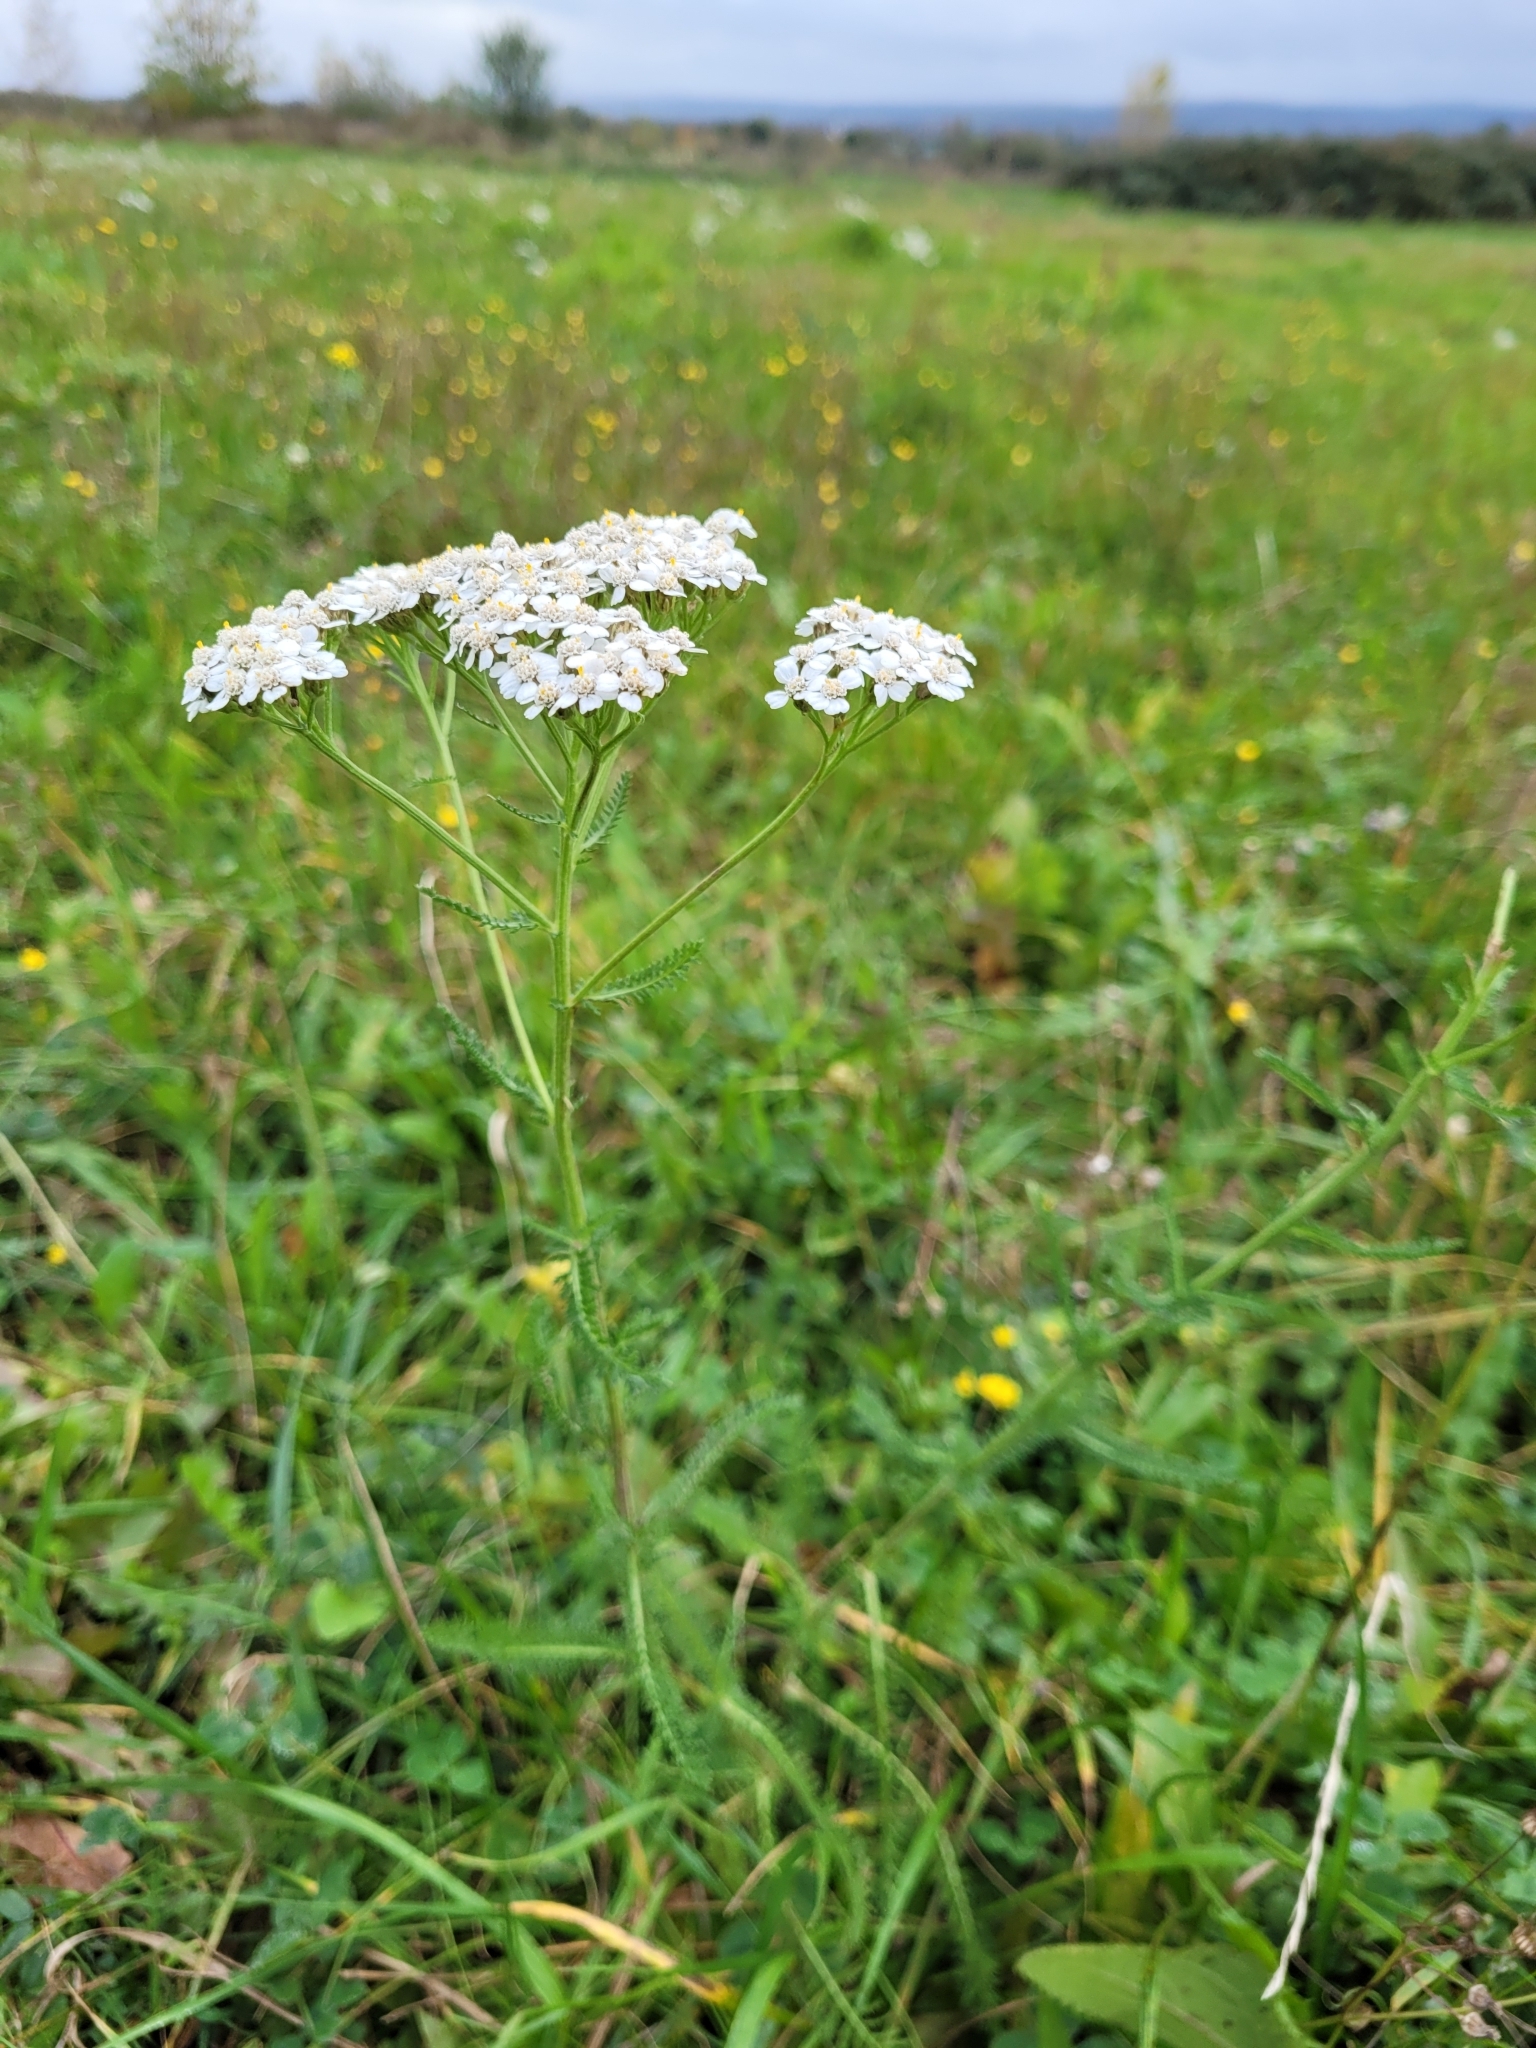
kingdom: Plantae
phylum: Tracheophyta
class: Magnoliopsida
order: Asterales
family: Asteraceae
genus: Achillea
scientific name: Achillea
